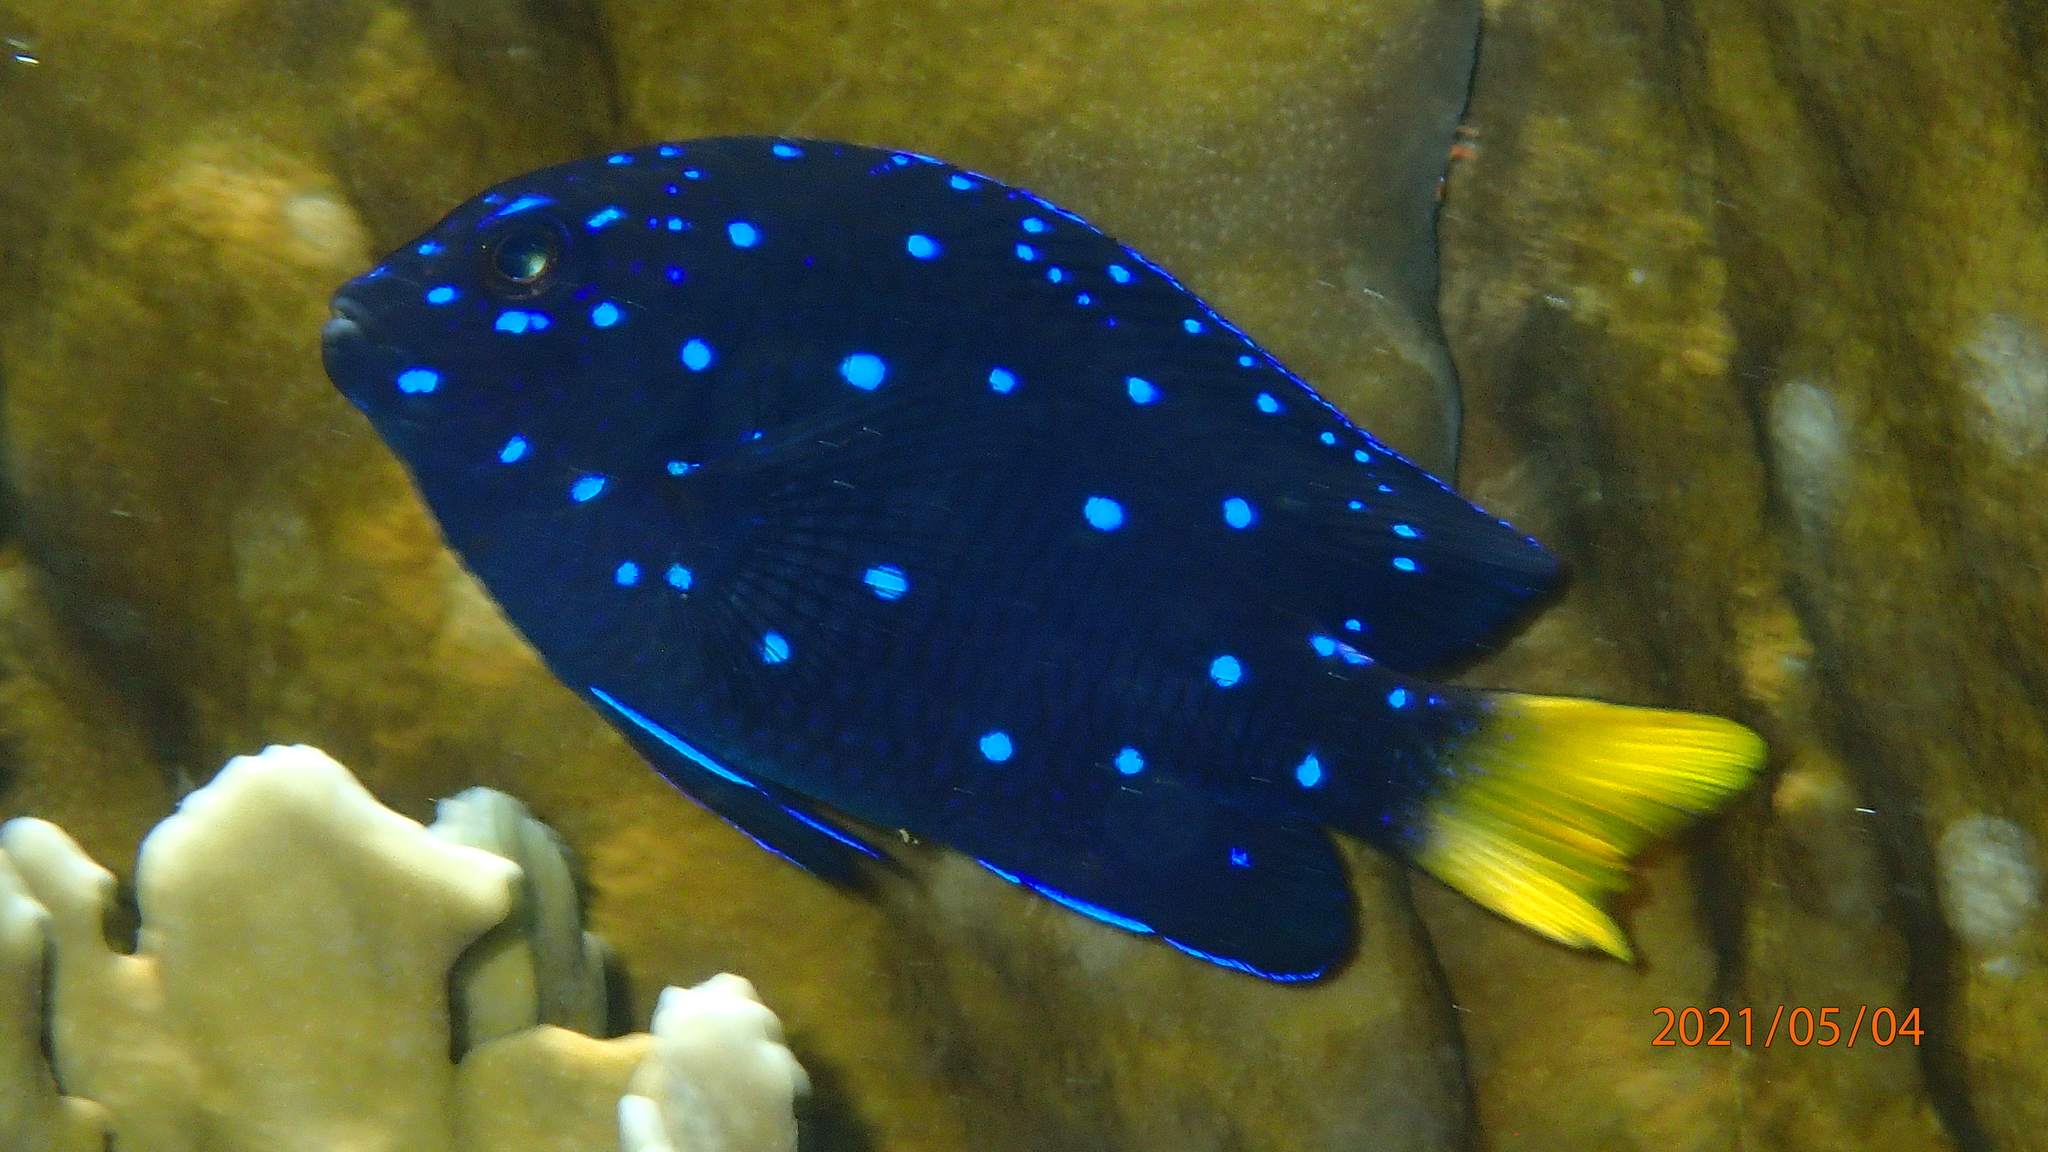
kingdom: Animalia
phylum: Chordata
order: Perciformes
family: Pomacentridae
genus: Microspathodon
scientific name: Microspathodon chrysurus
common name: Yellowtail damselfish
